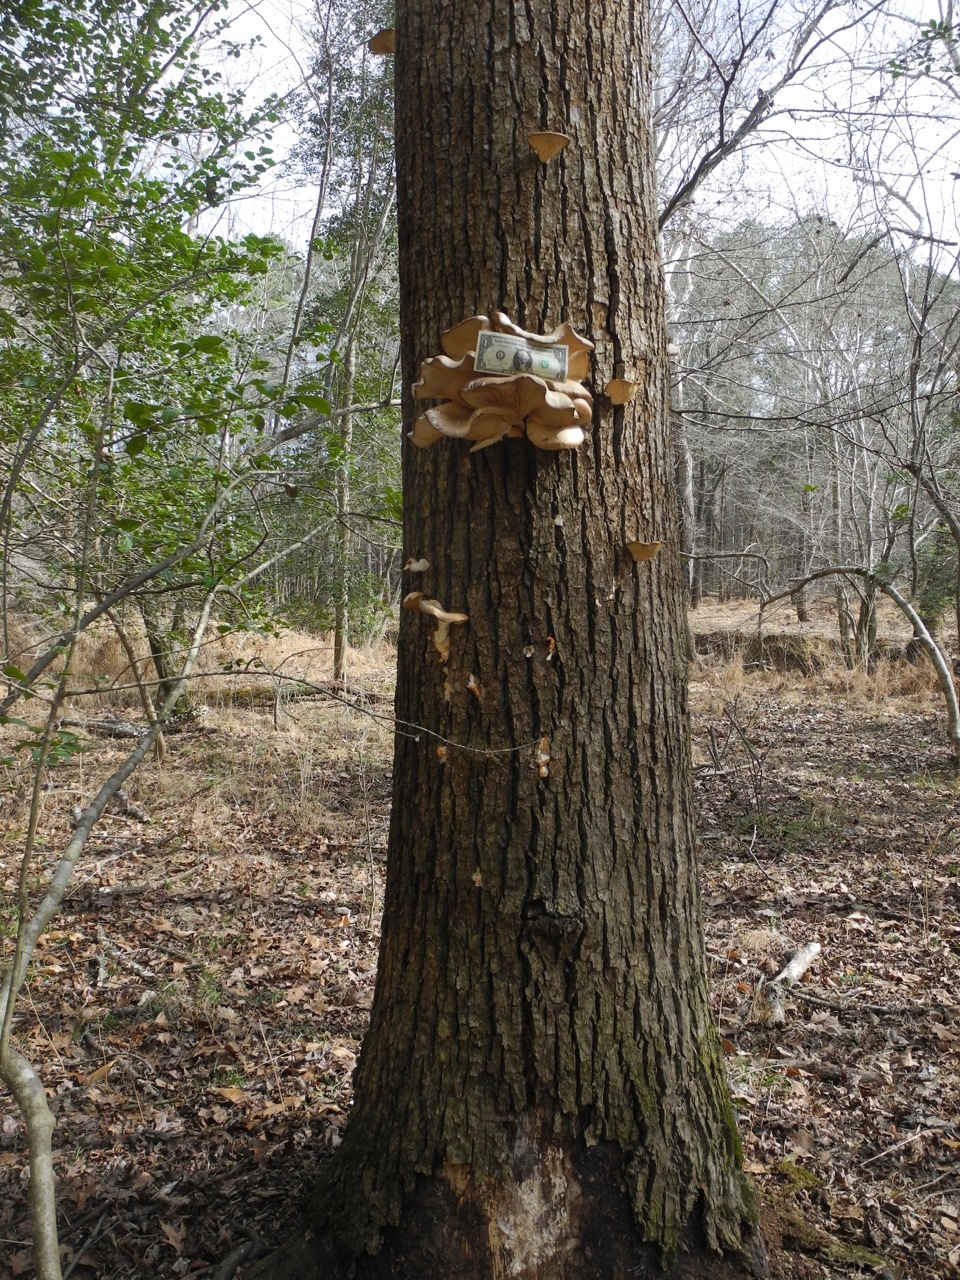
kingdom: Fungi
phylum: Basidiomycota
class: Agaricomycetes
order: Agaricales
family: Pleurotaceae
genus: Pleurotus
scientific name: Pleurotus ostreatus
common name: Oyster mushroom
